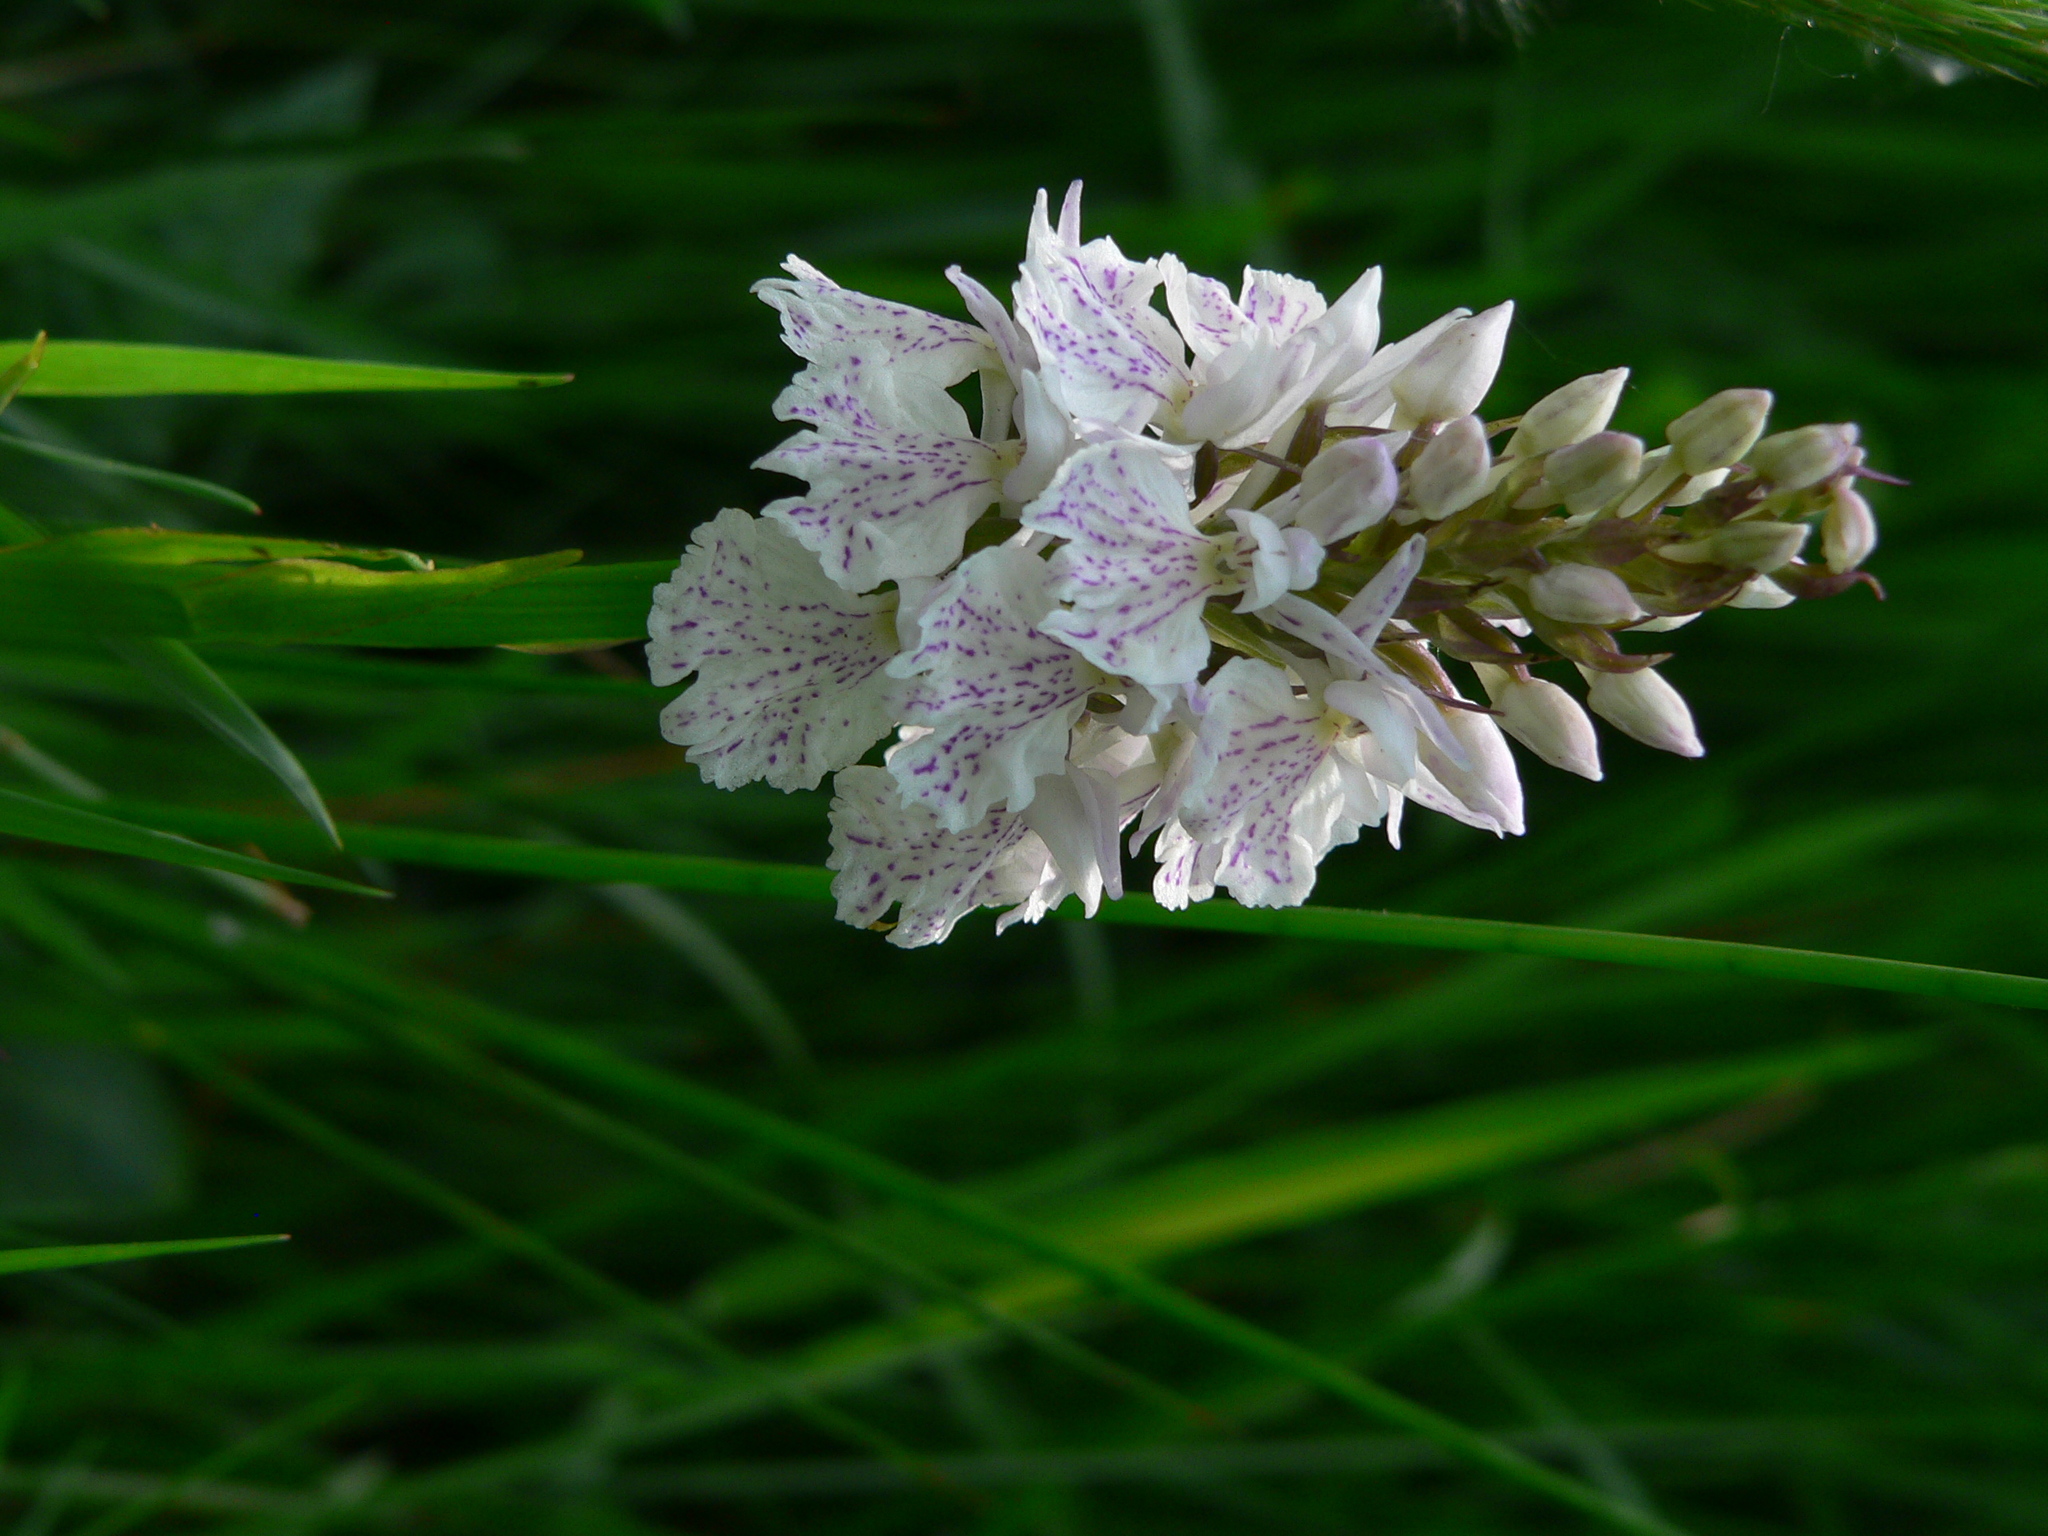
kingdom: Plantae
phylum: Tracheophyta
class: Liliopsida
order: Asparagales
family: Orchidaceae
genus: Dactylorhiza
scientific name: Dactylorhiza maculata
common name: Heath spotted-orchid
